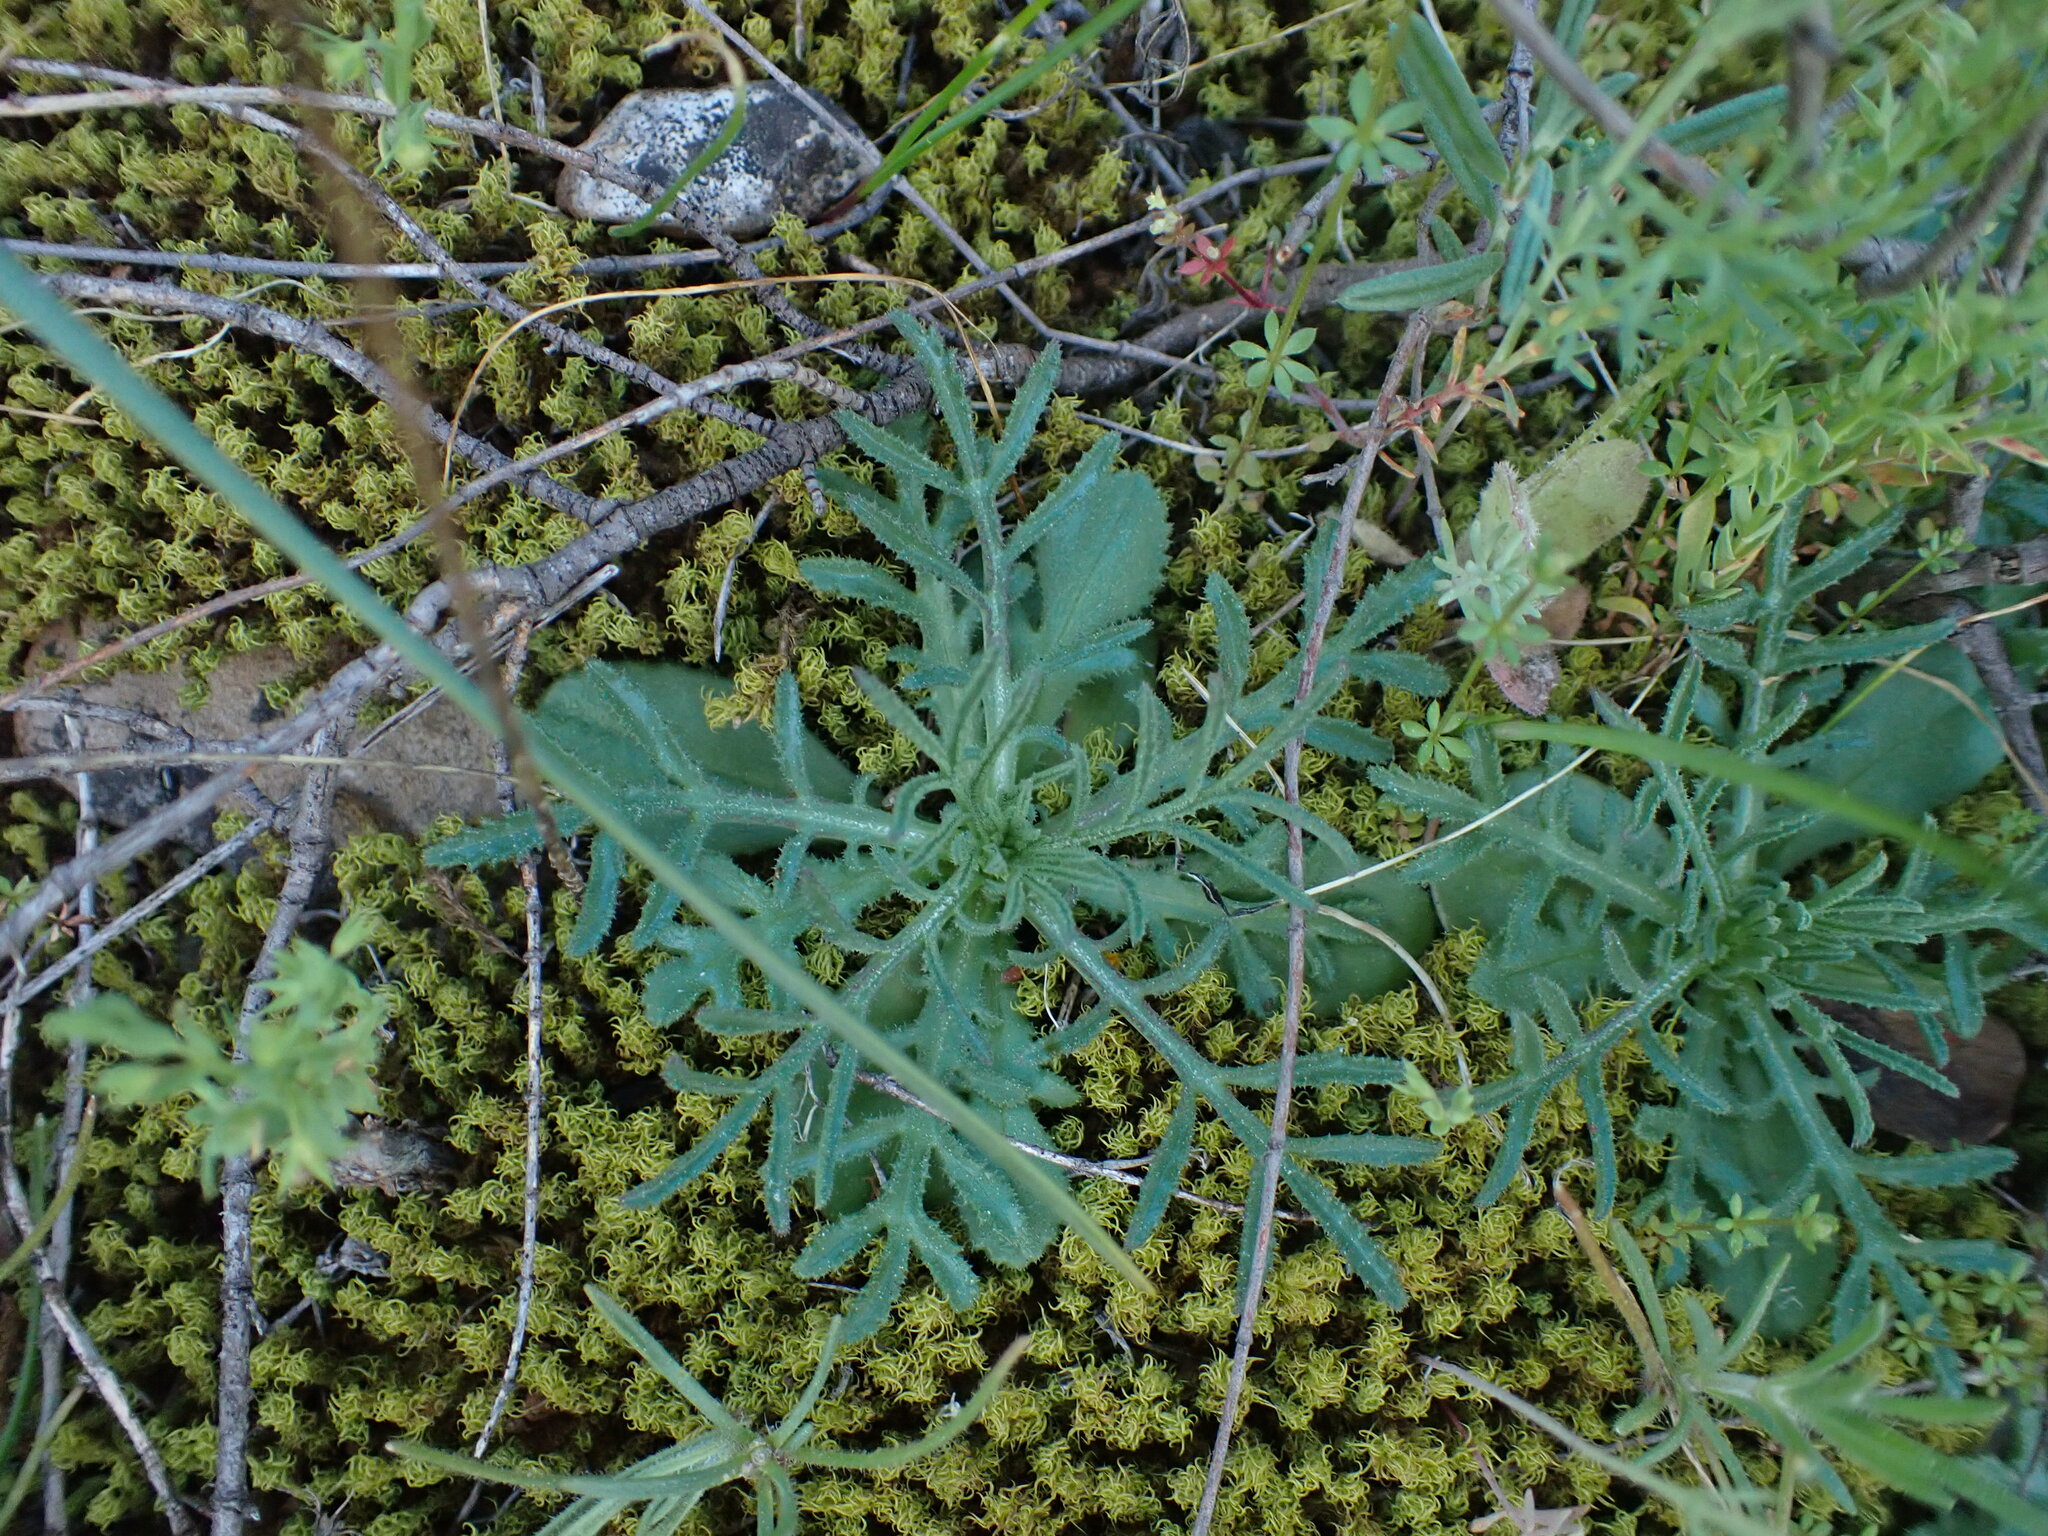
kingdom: Plantae
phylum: Tracheophyta
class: Magnoliopsida
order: Asterales
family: Asteraceae
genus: Crupina
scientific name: Crupina vulgaris
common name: Common crupina
